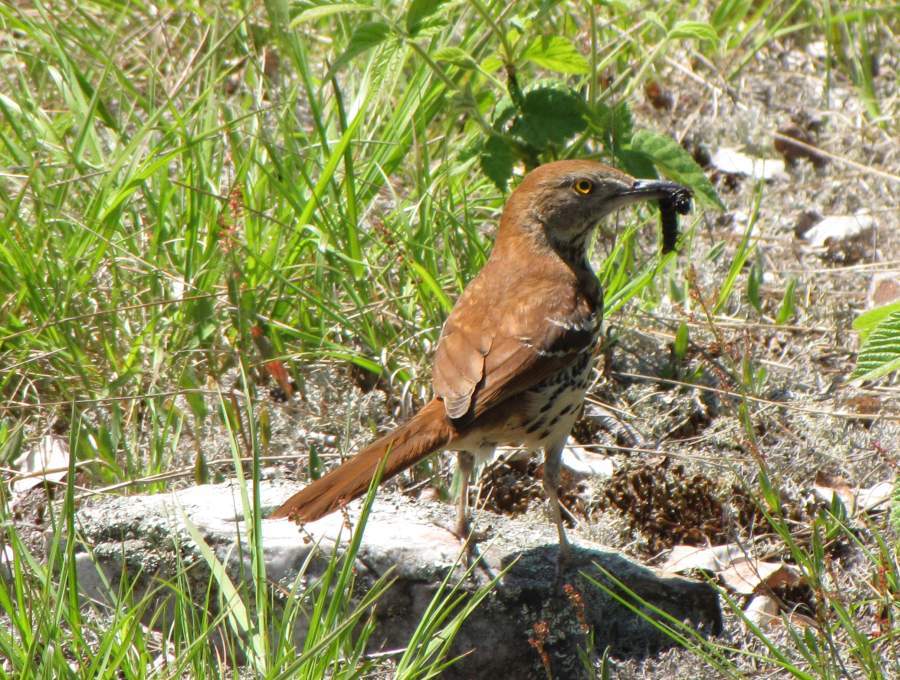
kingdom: Animalia
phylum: Chordata
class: Aves
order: Passeriformes
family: Mimidae
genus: Toxostoma
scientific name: Toxostoma rufum
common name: Brown thrasher
